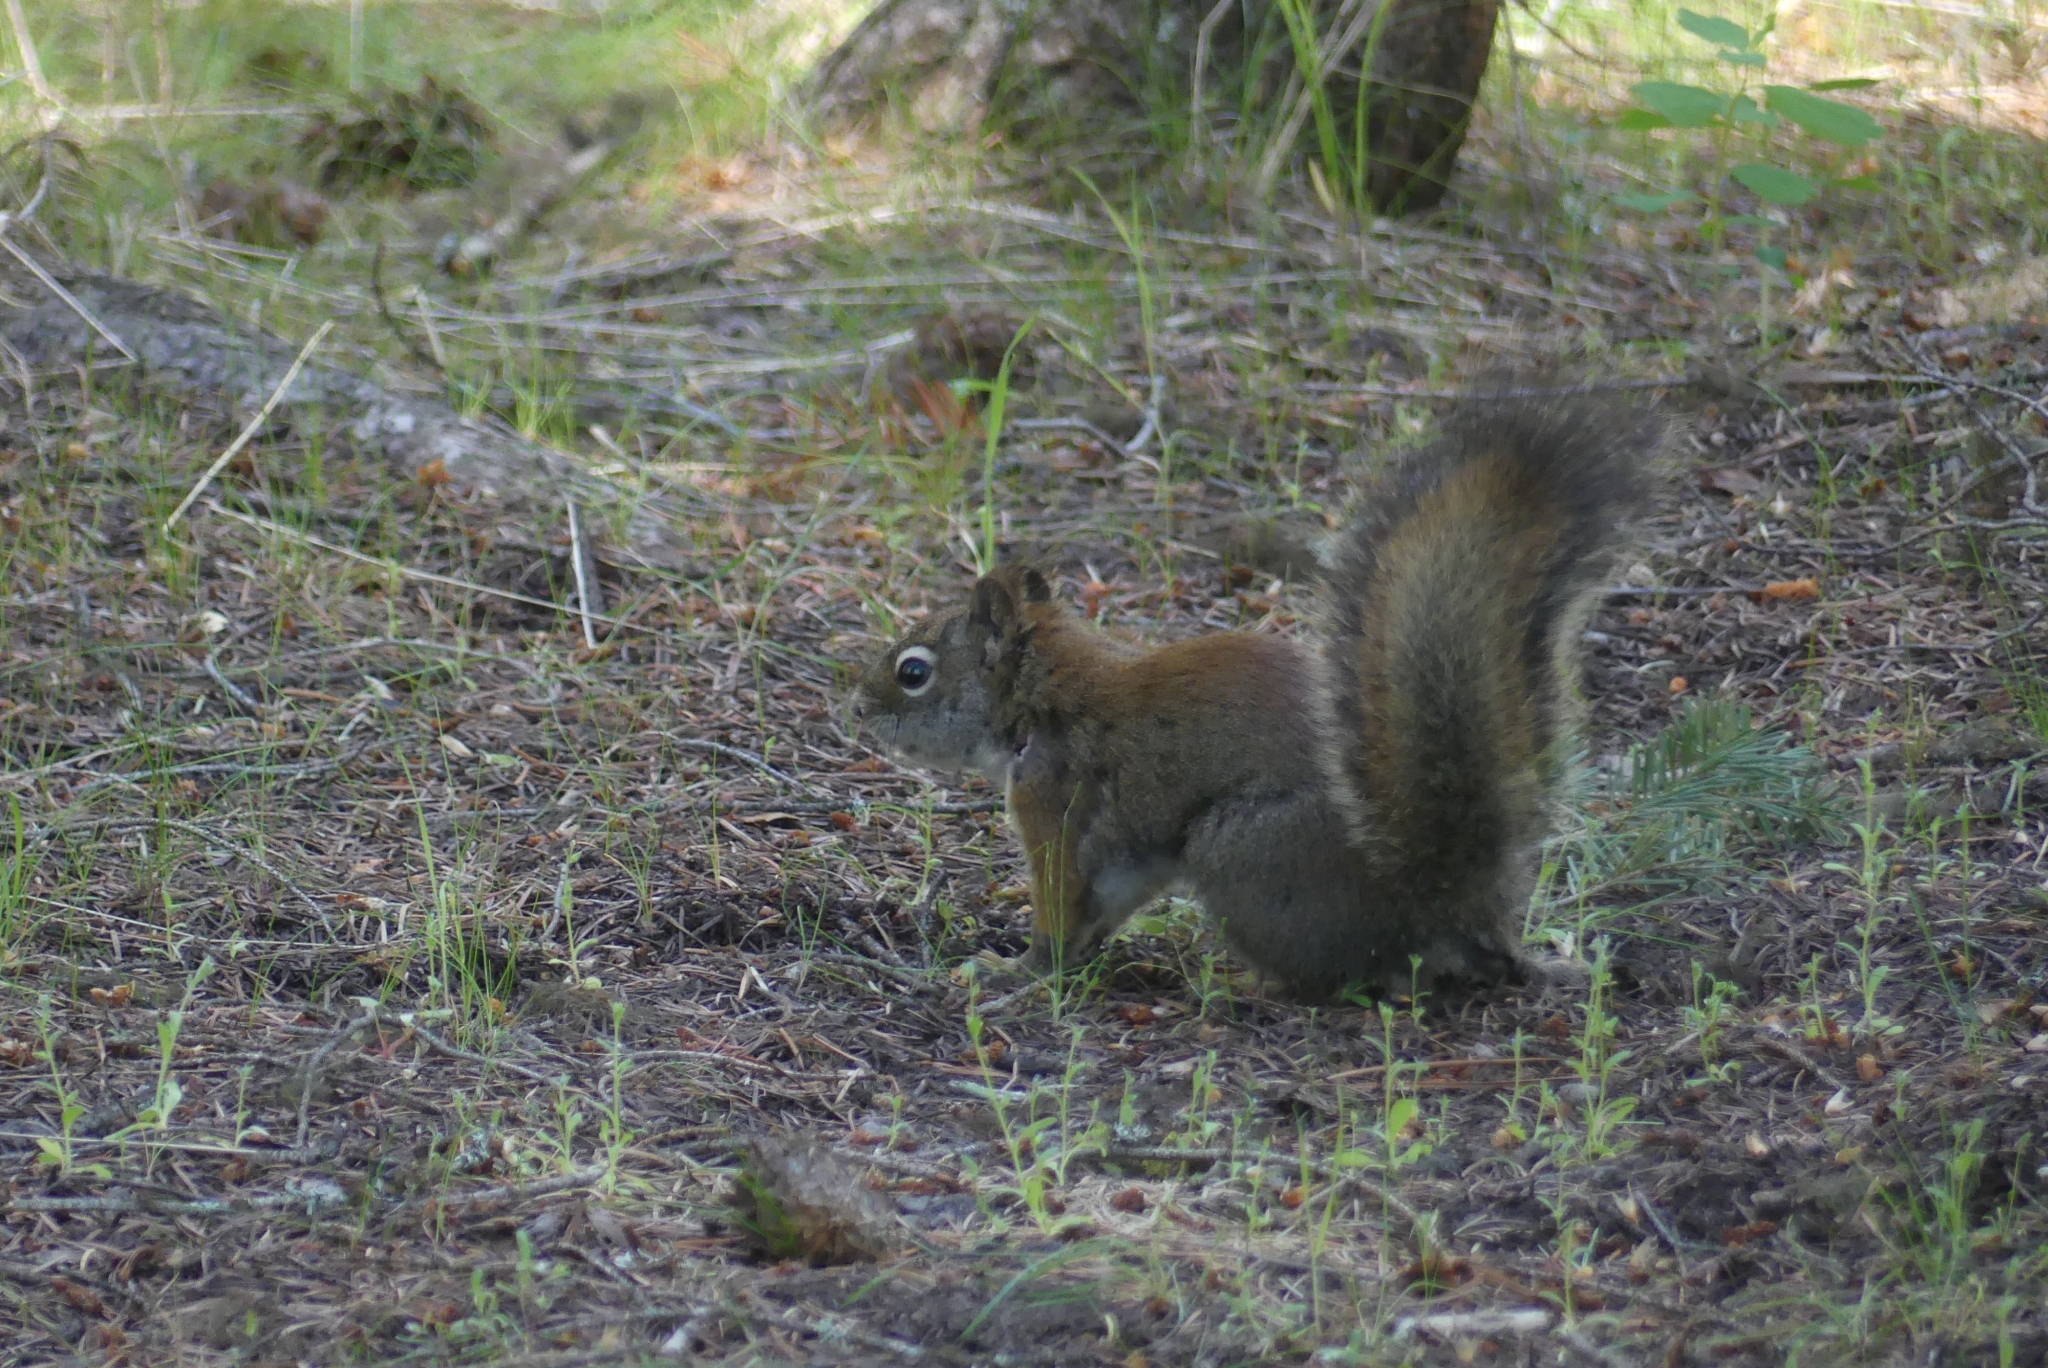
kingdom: Animalia
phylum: Chordata
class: Mammalia
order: Rodentia
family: Sciuridae
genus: Tamiasciurus
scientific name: Tamiasciurus hudsonicus
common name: Red squirrel
